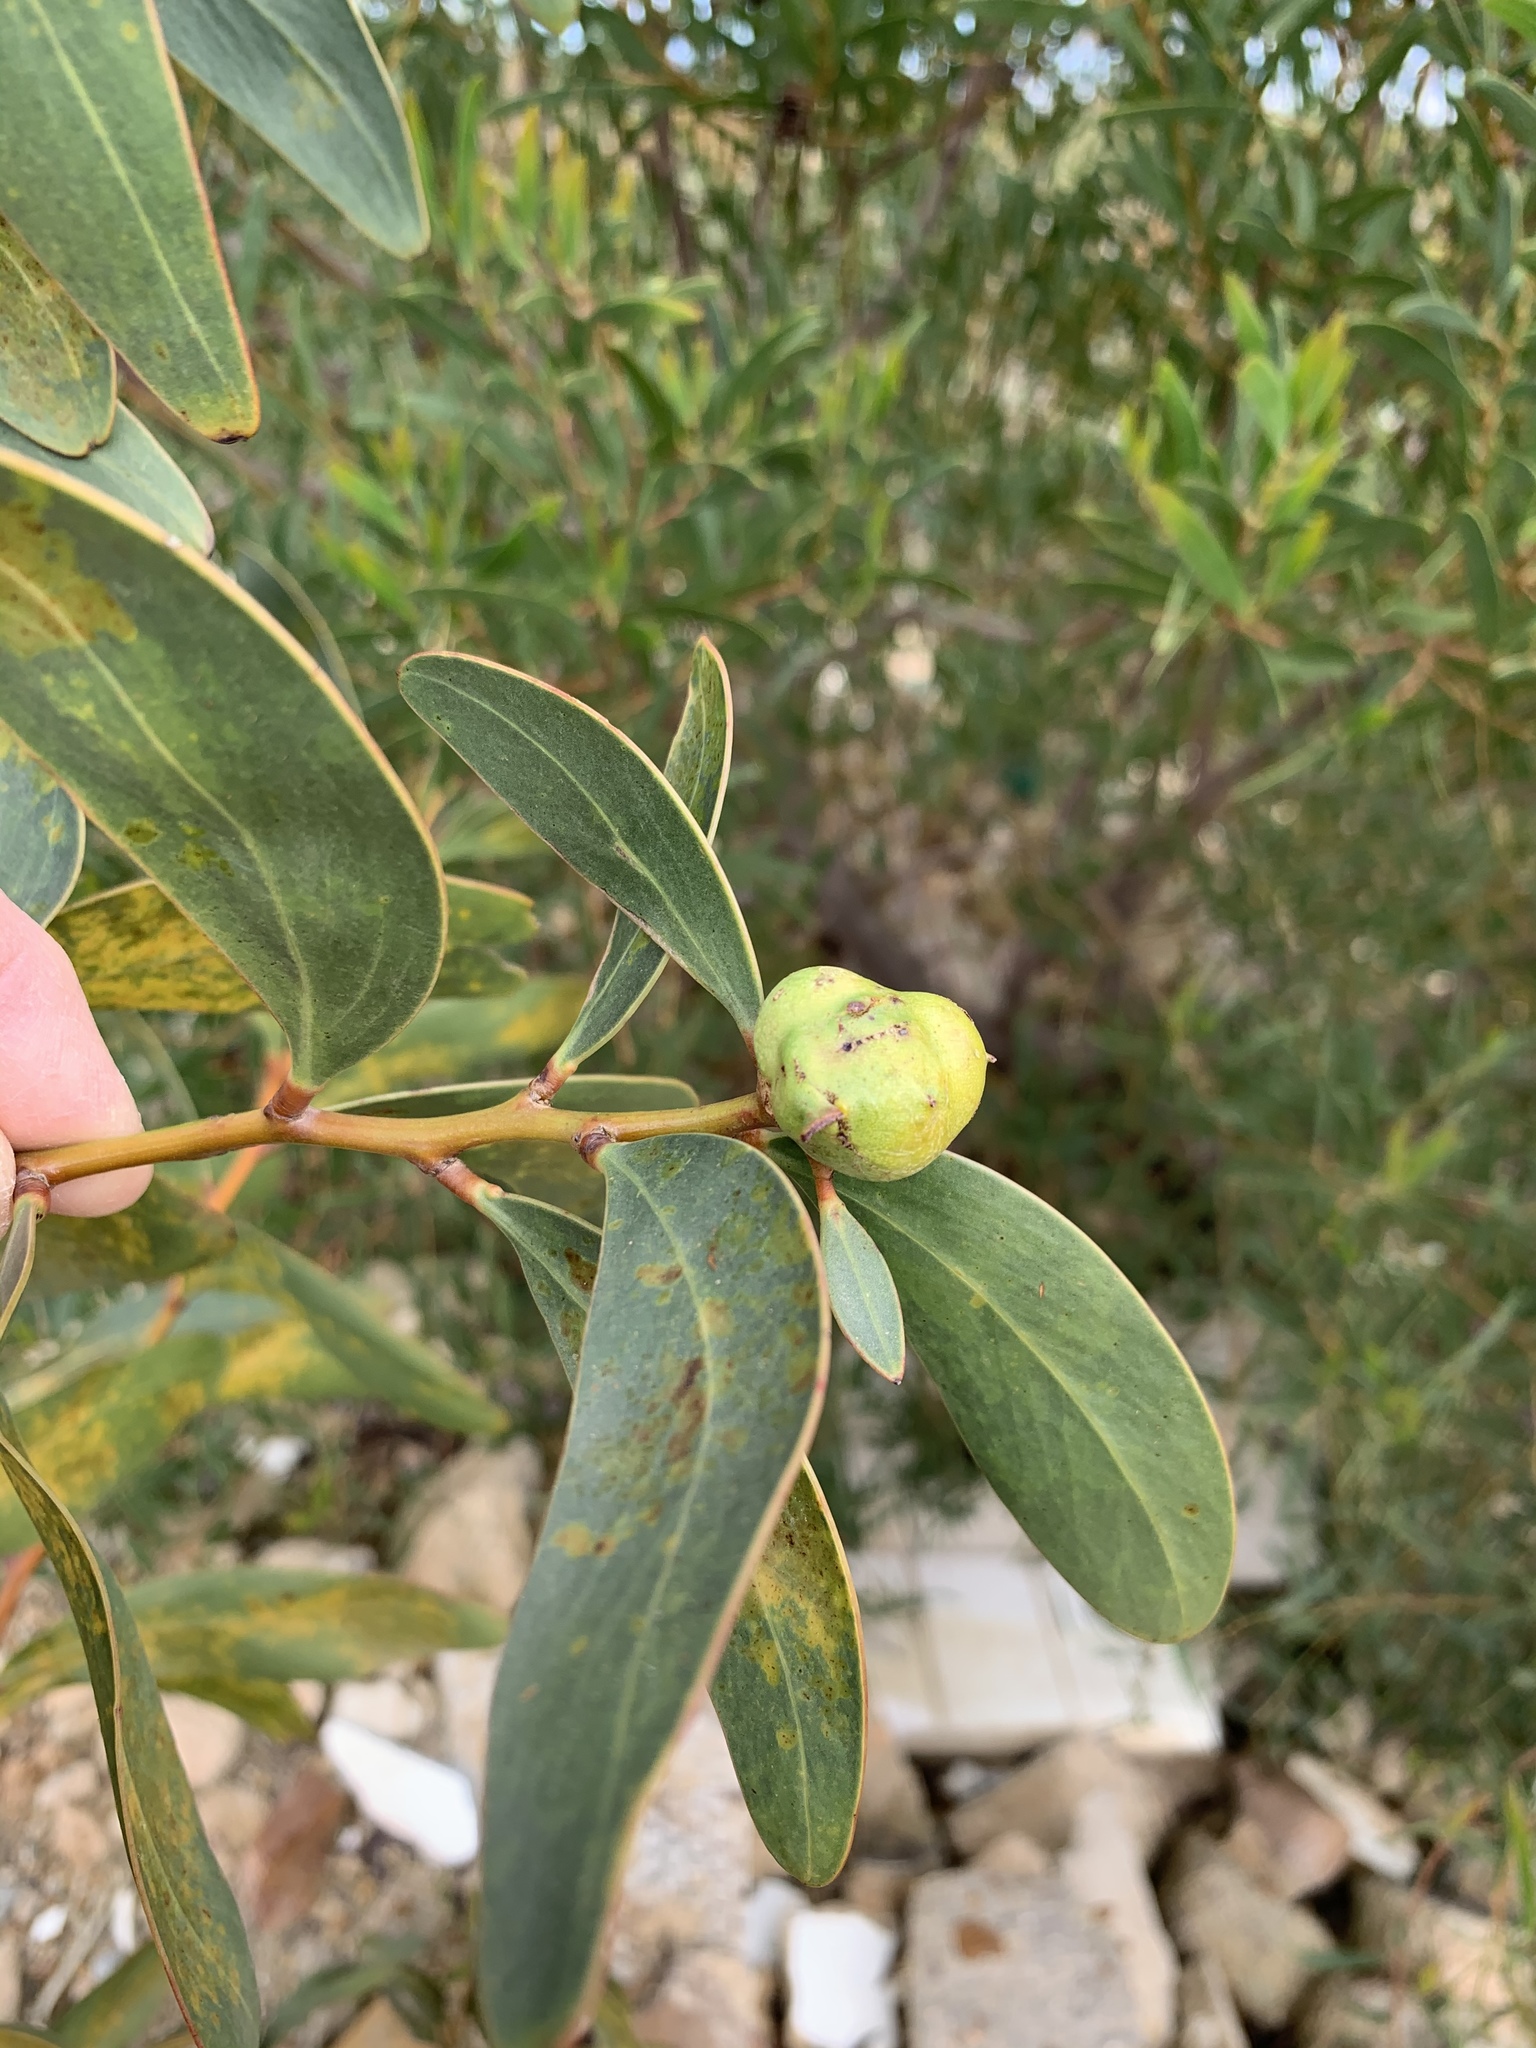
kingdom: Plantae
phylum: Tracheophyta
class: Magnoliopsida
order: Fabales
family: Fabaceae
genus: Acacia
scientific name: Acacia pycnantha
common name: Golden wattle
